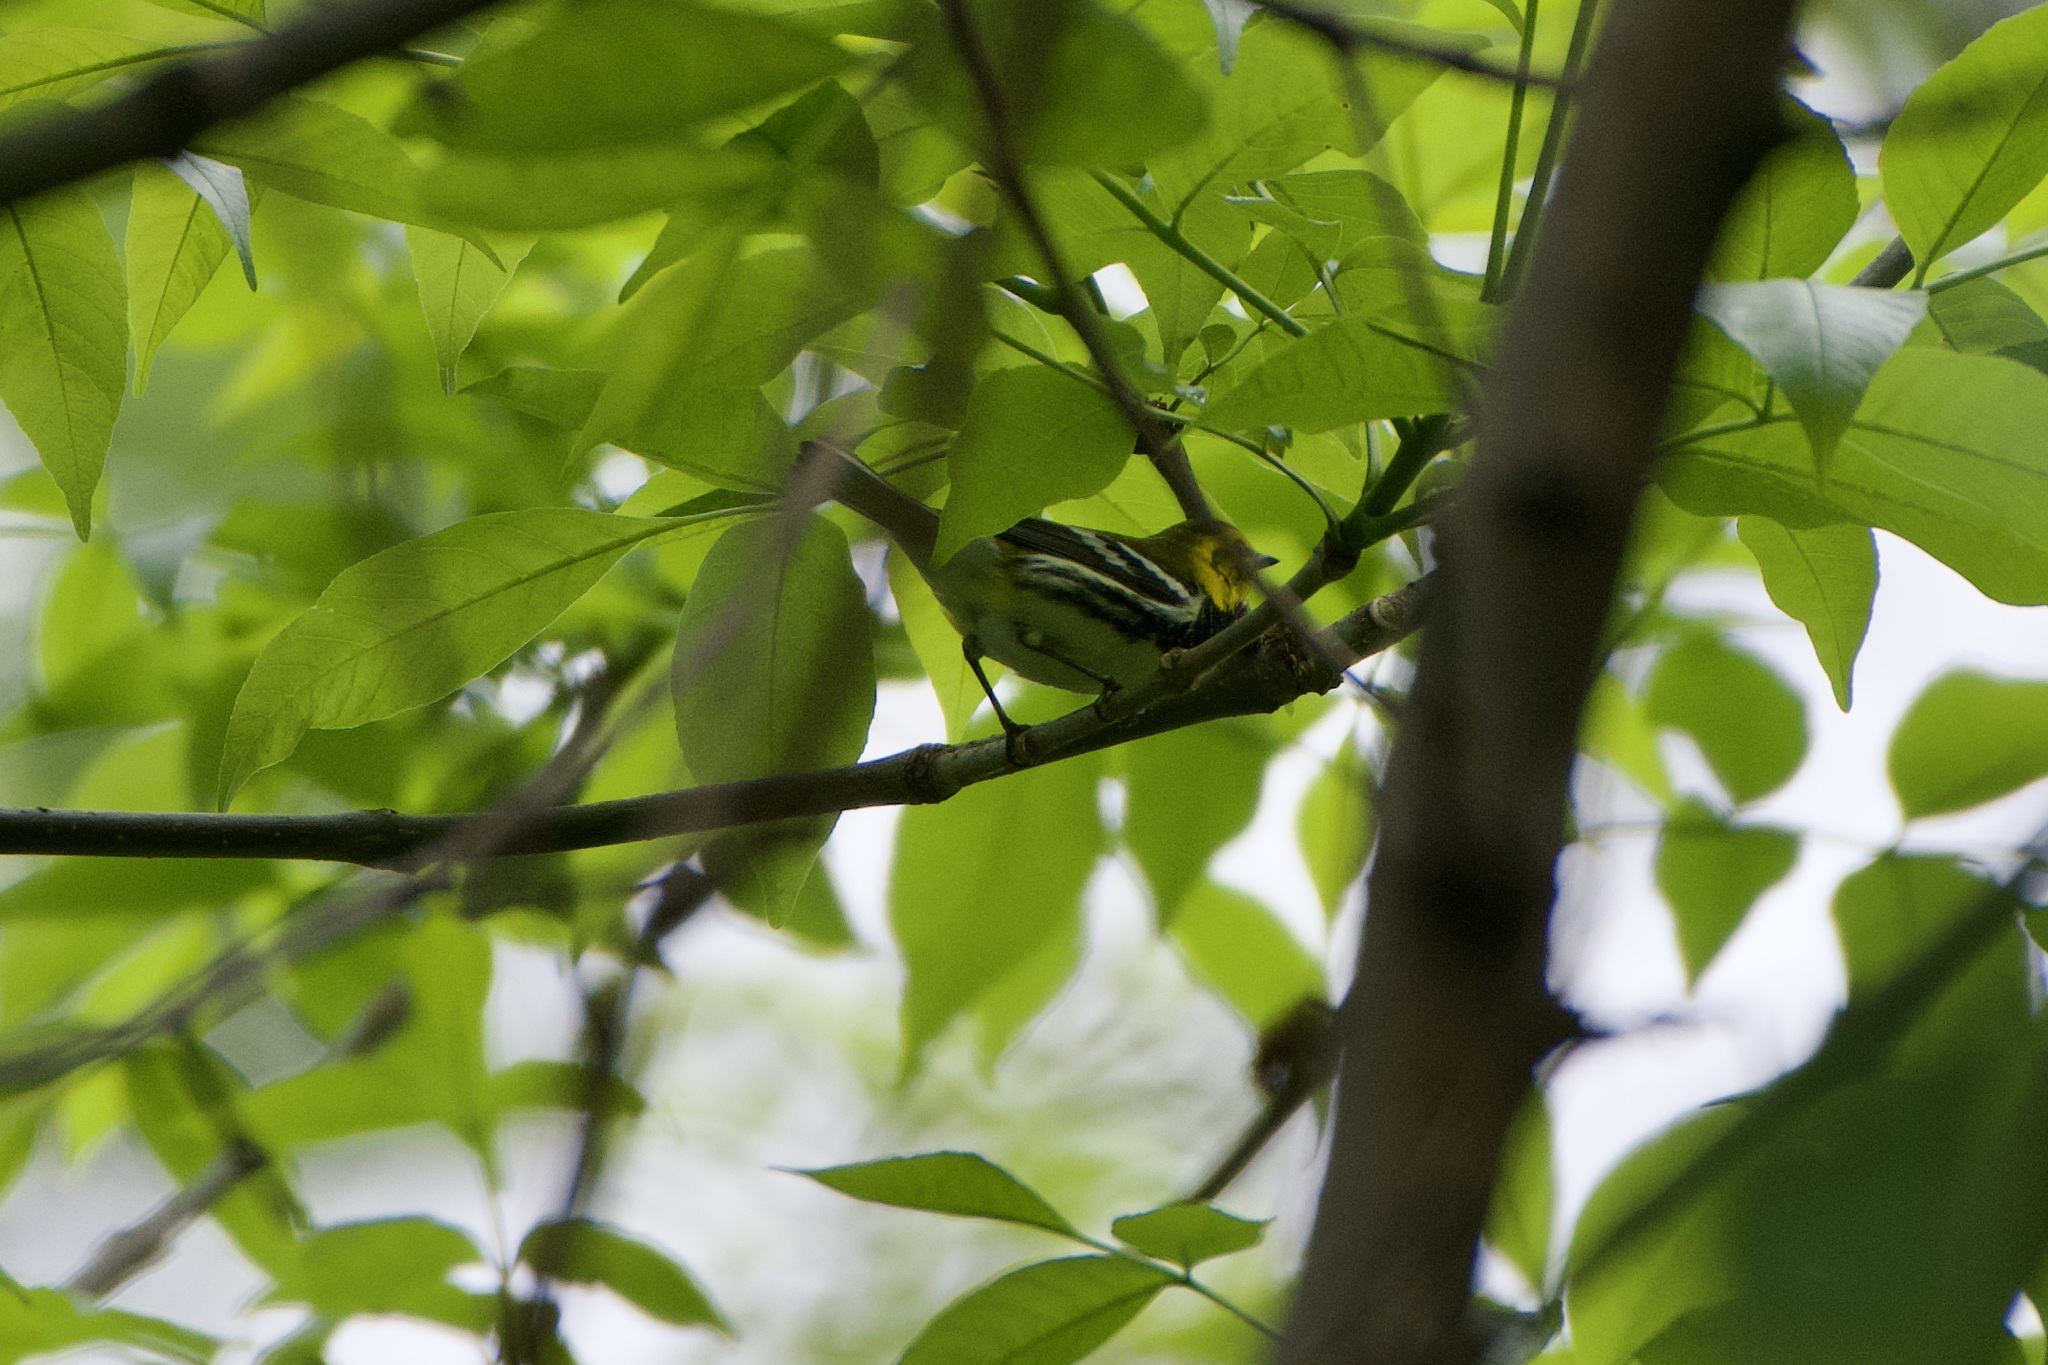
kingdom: Animalia
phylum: Chordata
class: Aves
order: Passeriformes
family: Parulidae
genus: Setophaga
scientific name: Setophaga virens
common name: Black-throated green warbler
